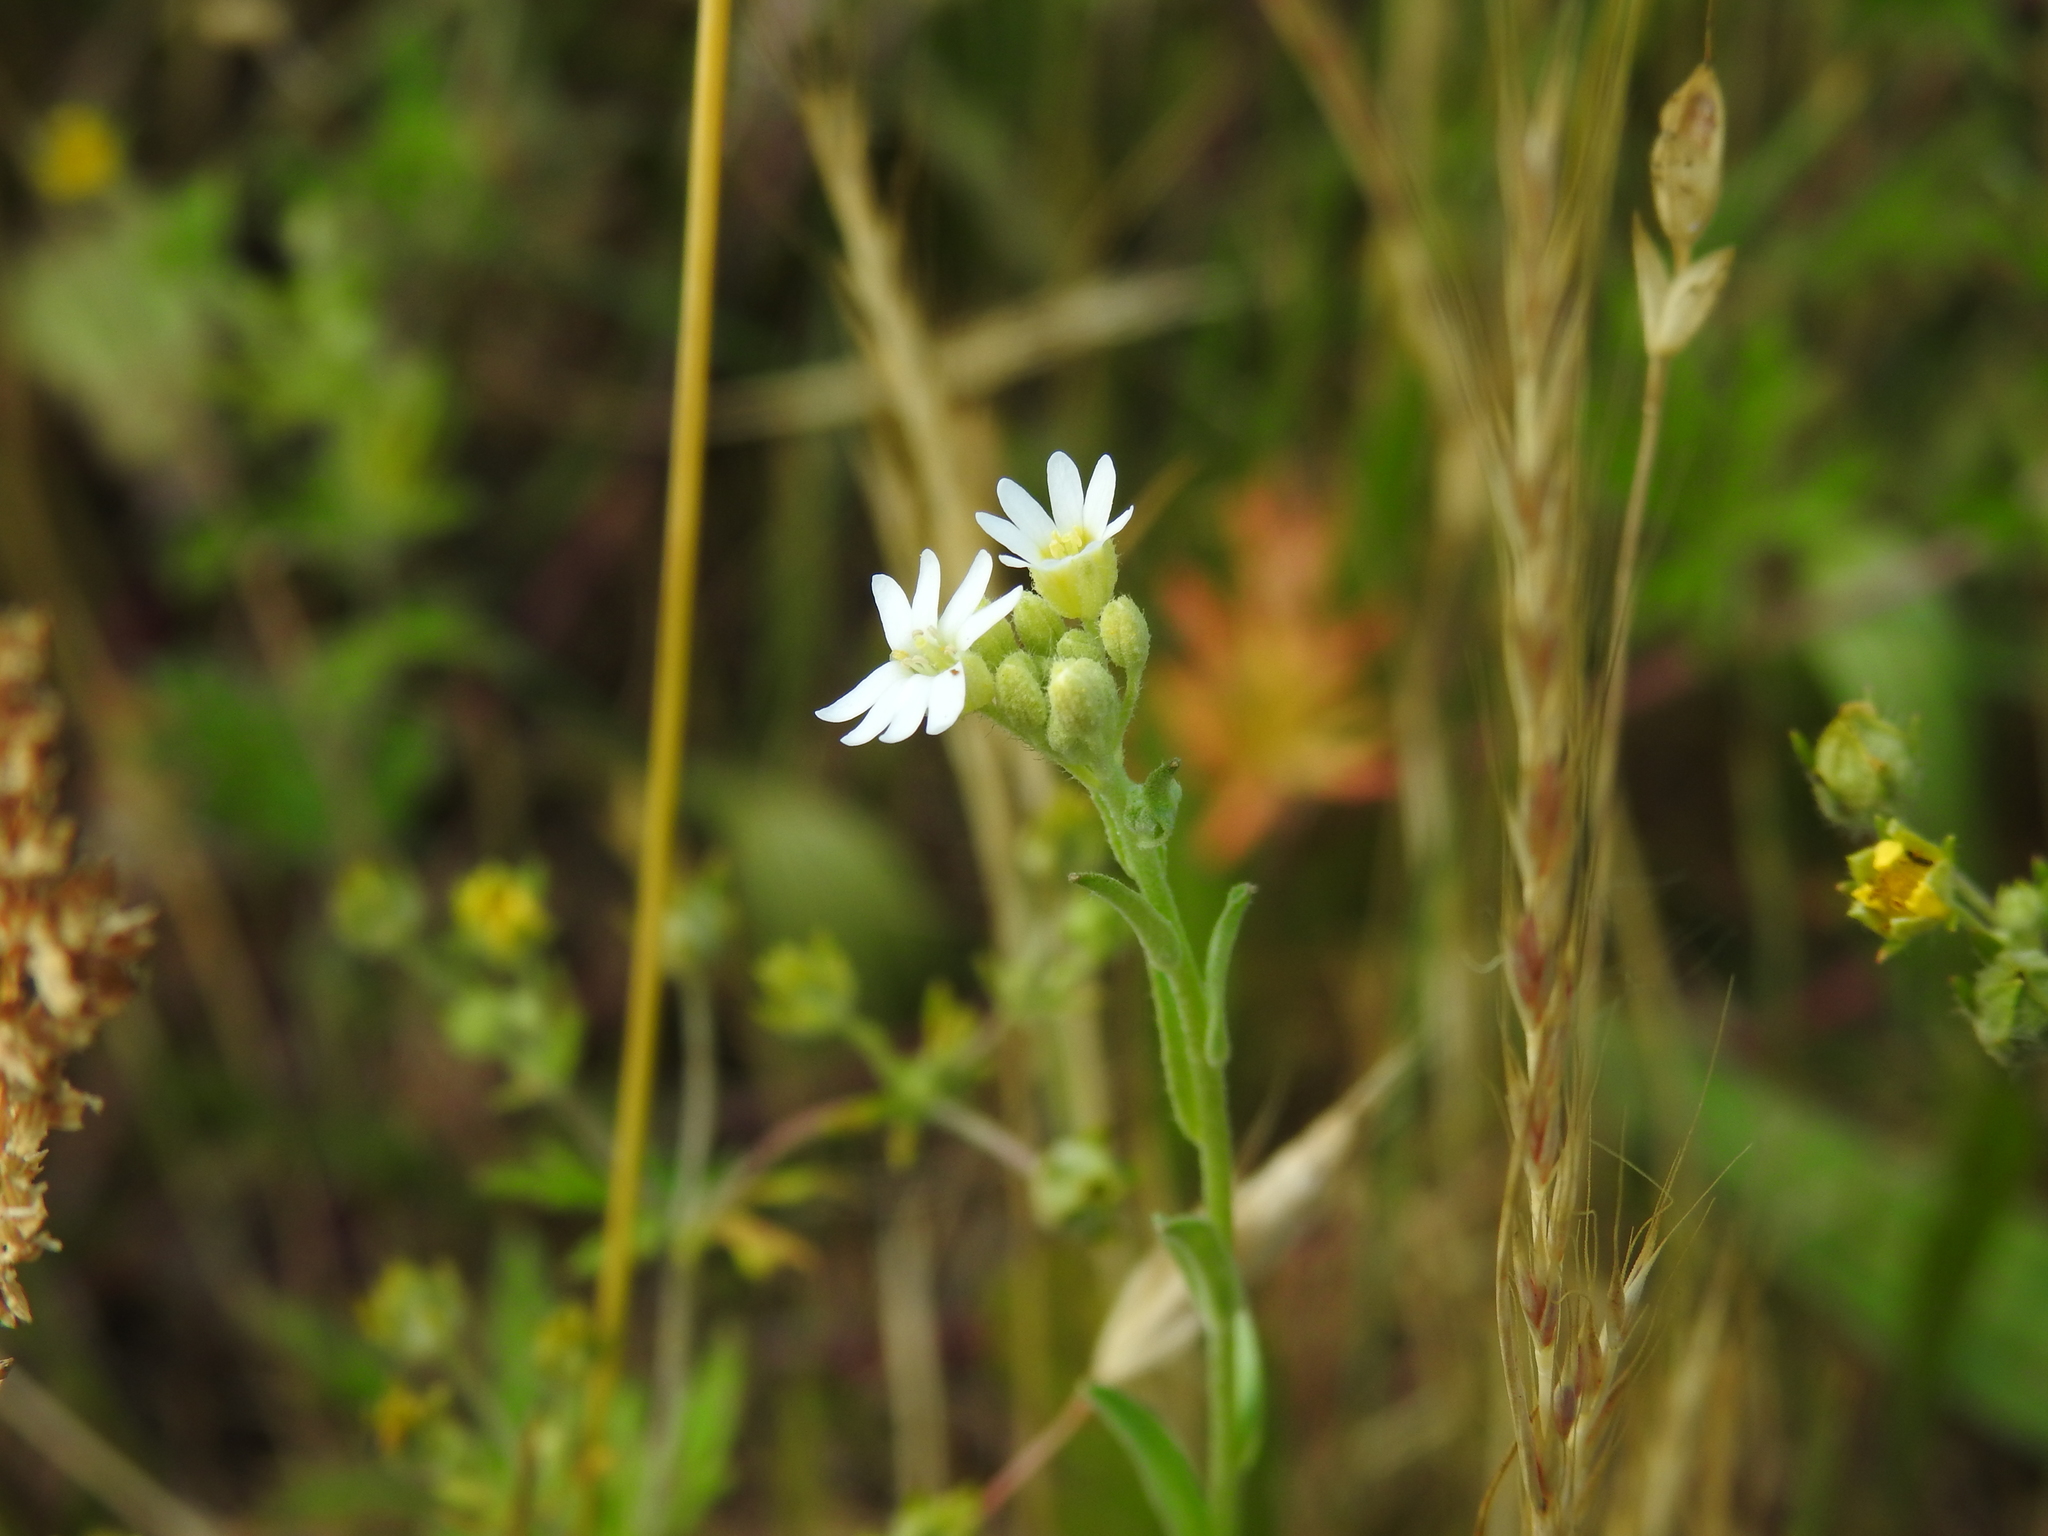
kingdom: Plantae
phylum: Tracheophyta
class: Magnoliopsida
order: Brassicales
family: Brassicaceae
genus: Berteroa
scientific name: Berteroa incana
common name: Hoary alison
